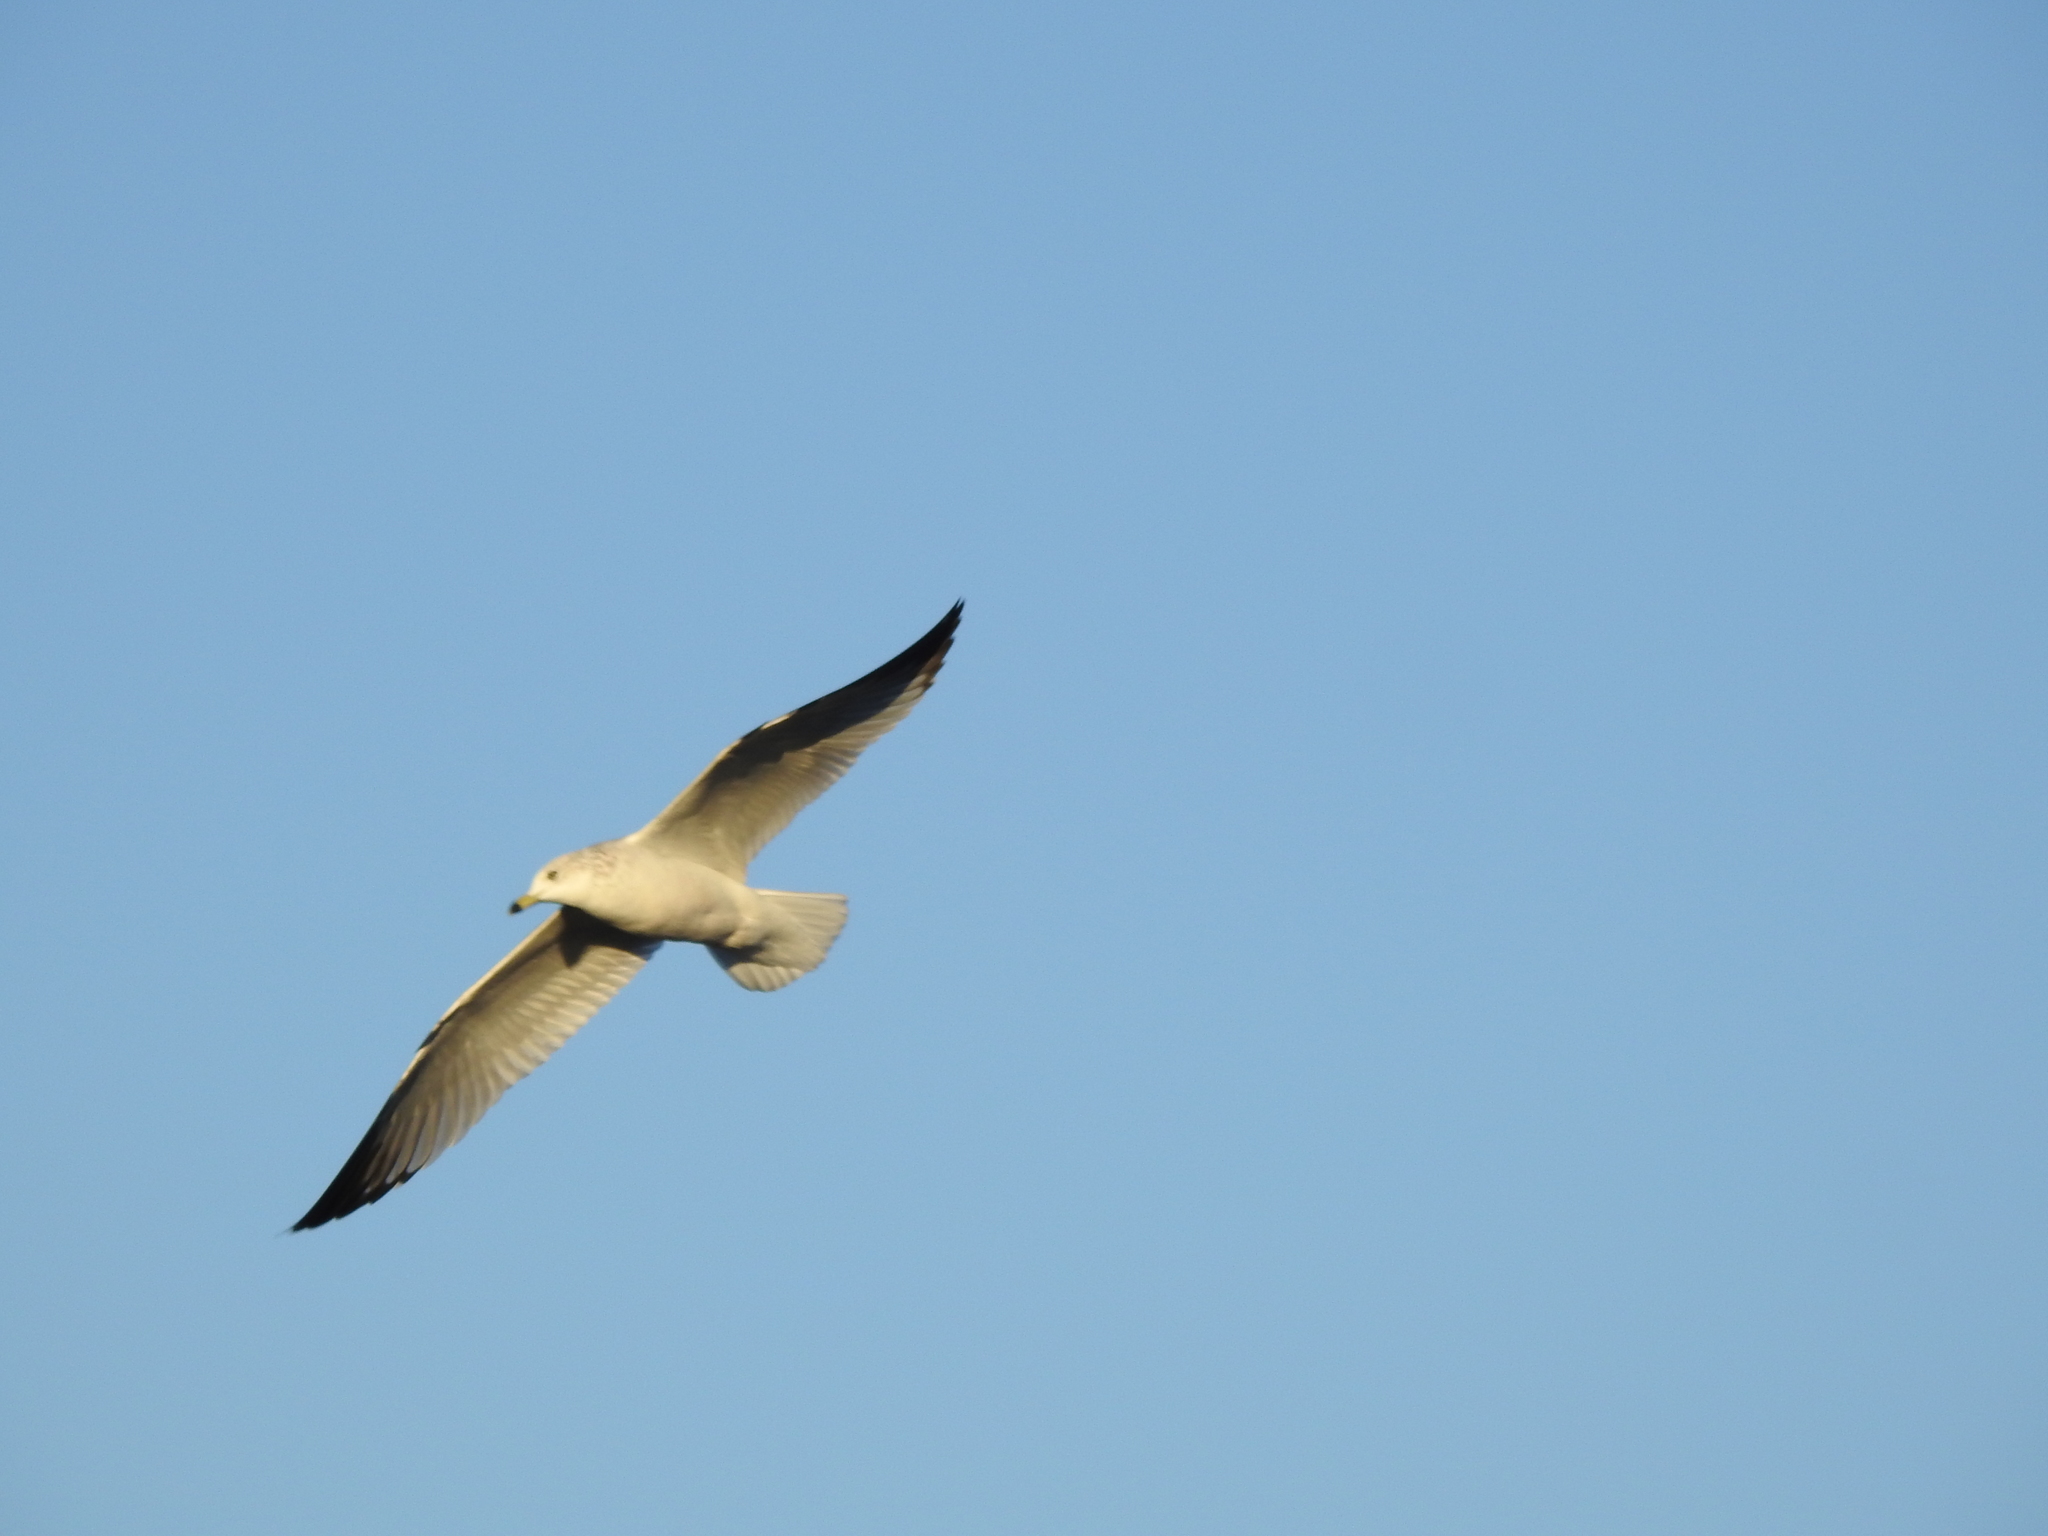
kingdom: Animalia
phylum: Chordata
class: Aves
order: Charadriiformes
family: Laridae
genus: Larus
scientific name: Larus delawarensis
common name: Ring-billed gull
